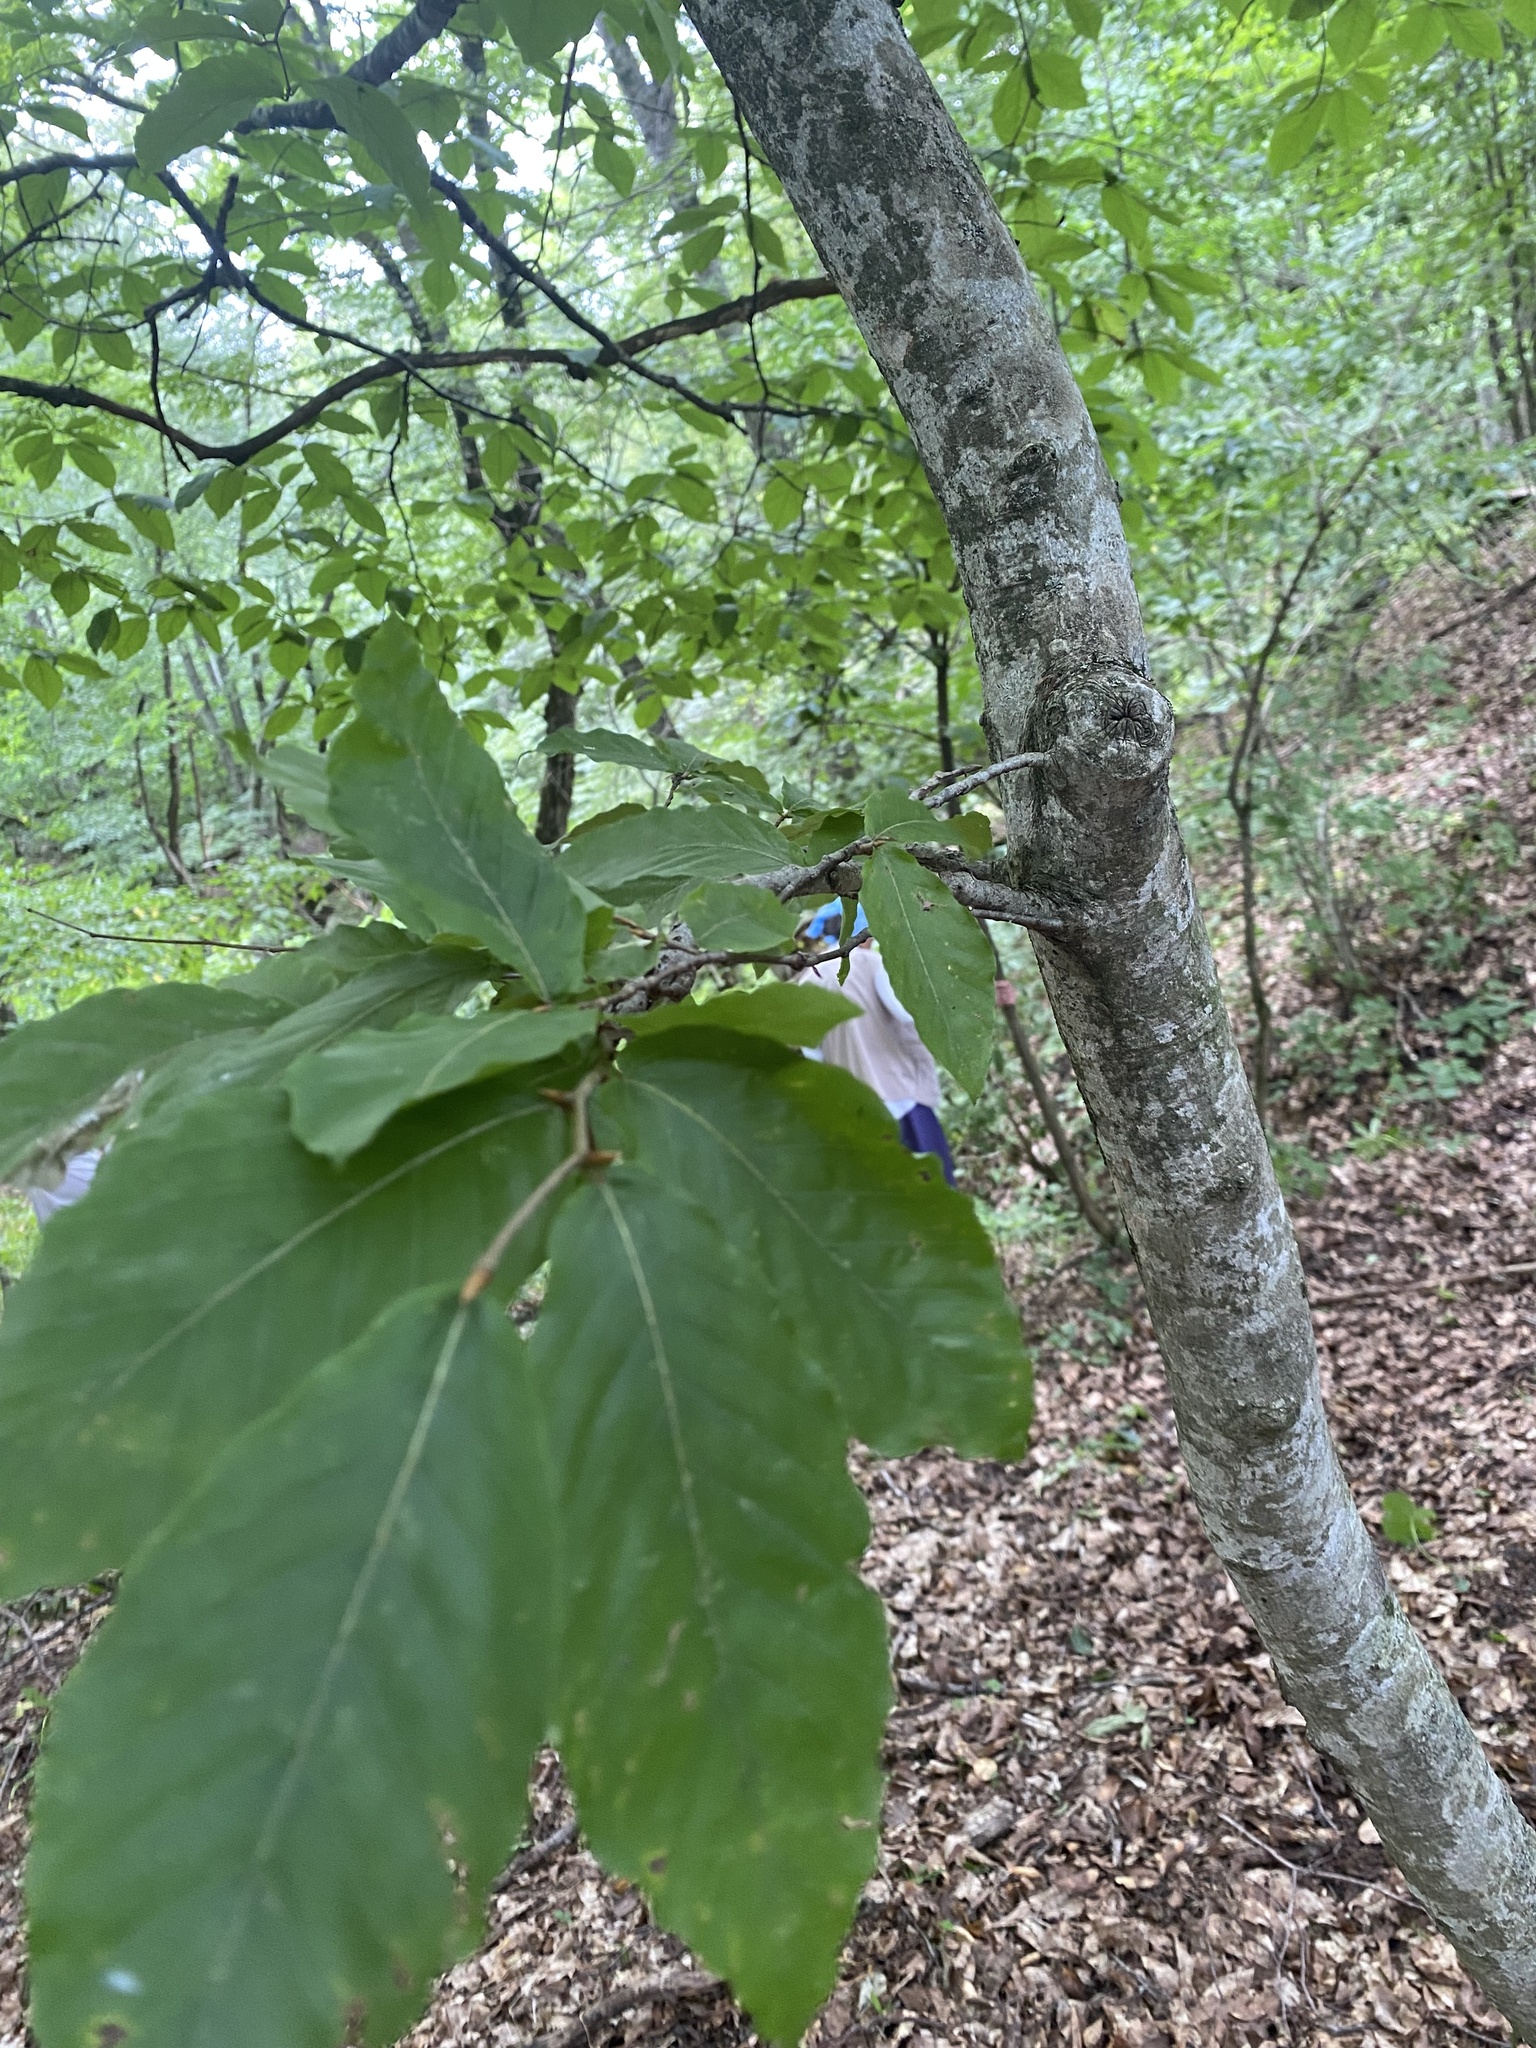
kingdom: Plantae
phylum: Tracheophyta
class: Magnoliopsida
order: Fagales
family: Fagaceae
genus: Fagus
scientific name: Fagus orientalis
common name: Oriental beech
